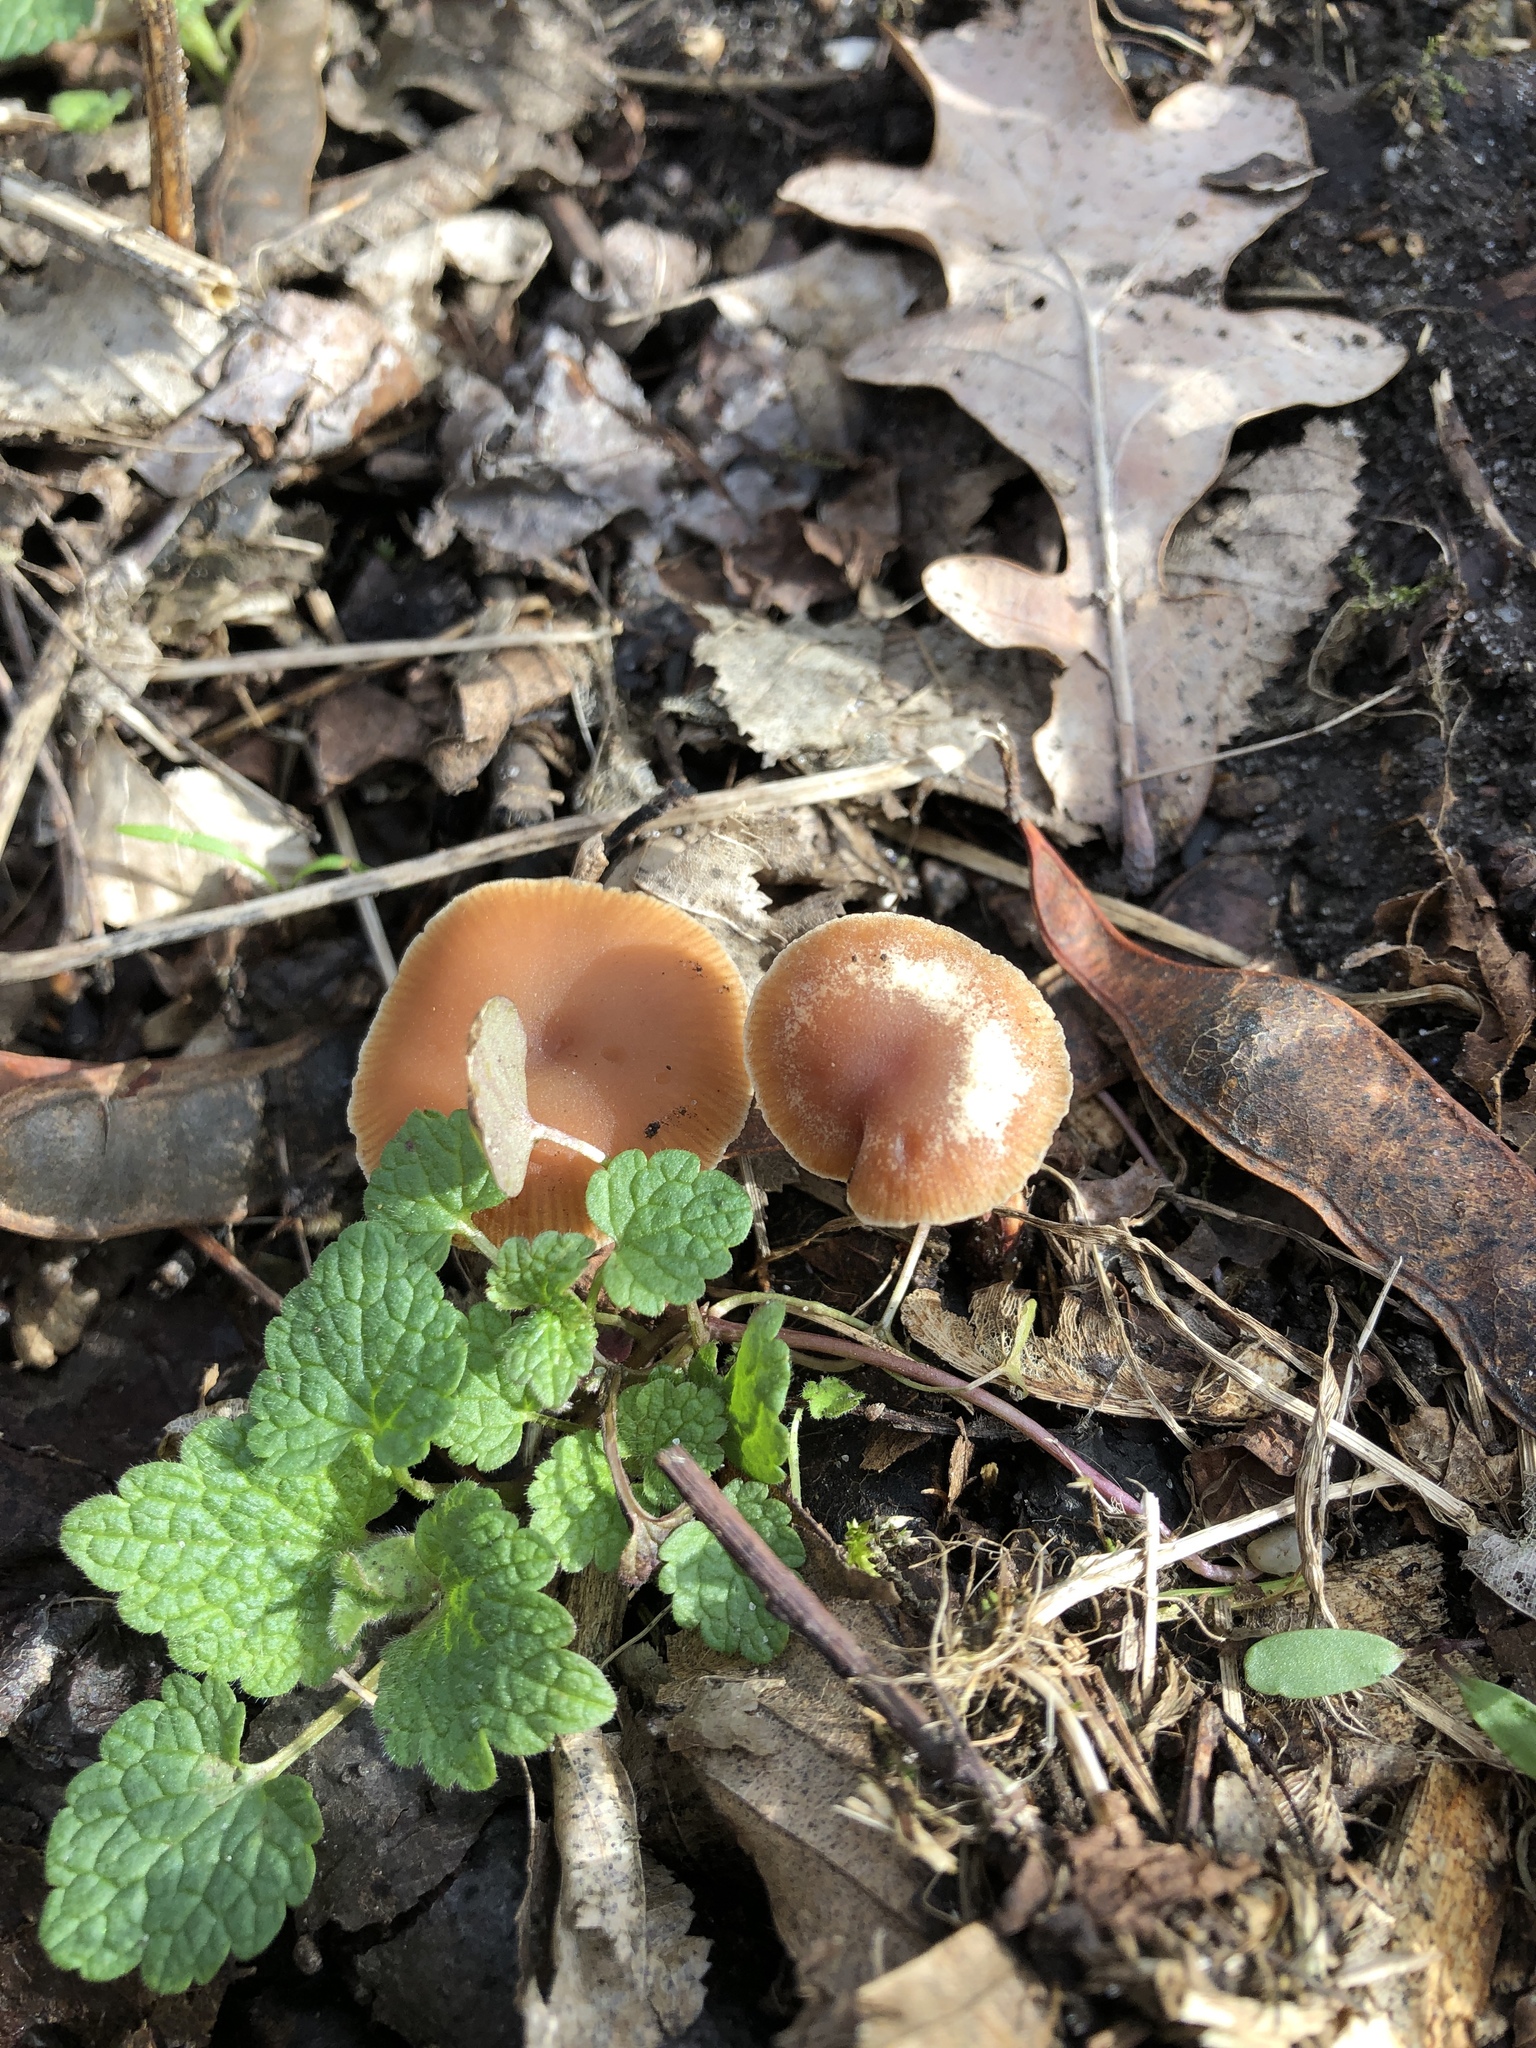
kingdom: Fungi
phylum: Basidiomycota
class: Agaricomycetes
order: Agaricales
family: Tubariaceae
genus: Tubaria
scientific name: Tubaria furfuracea
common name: Scurfy twiglet
